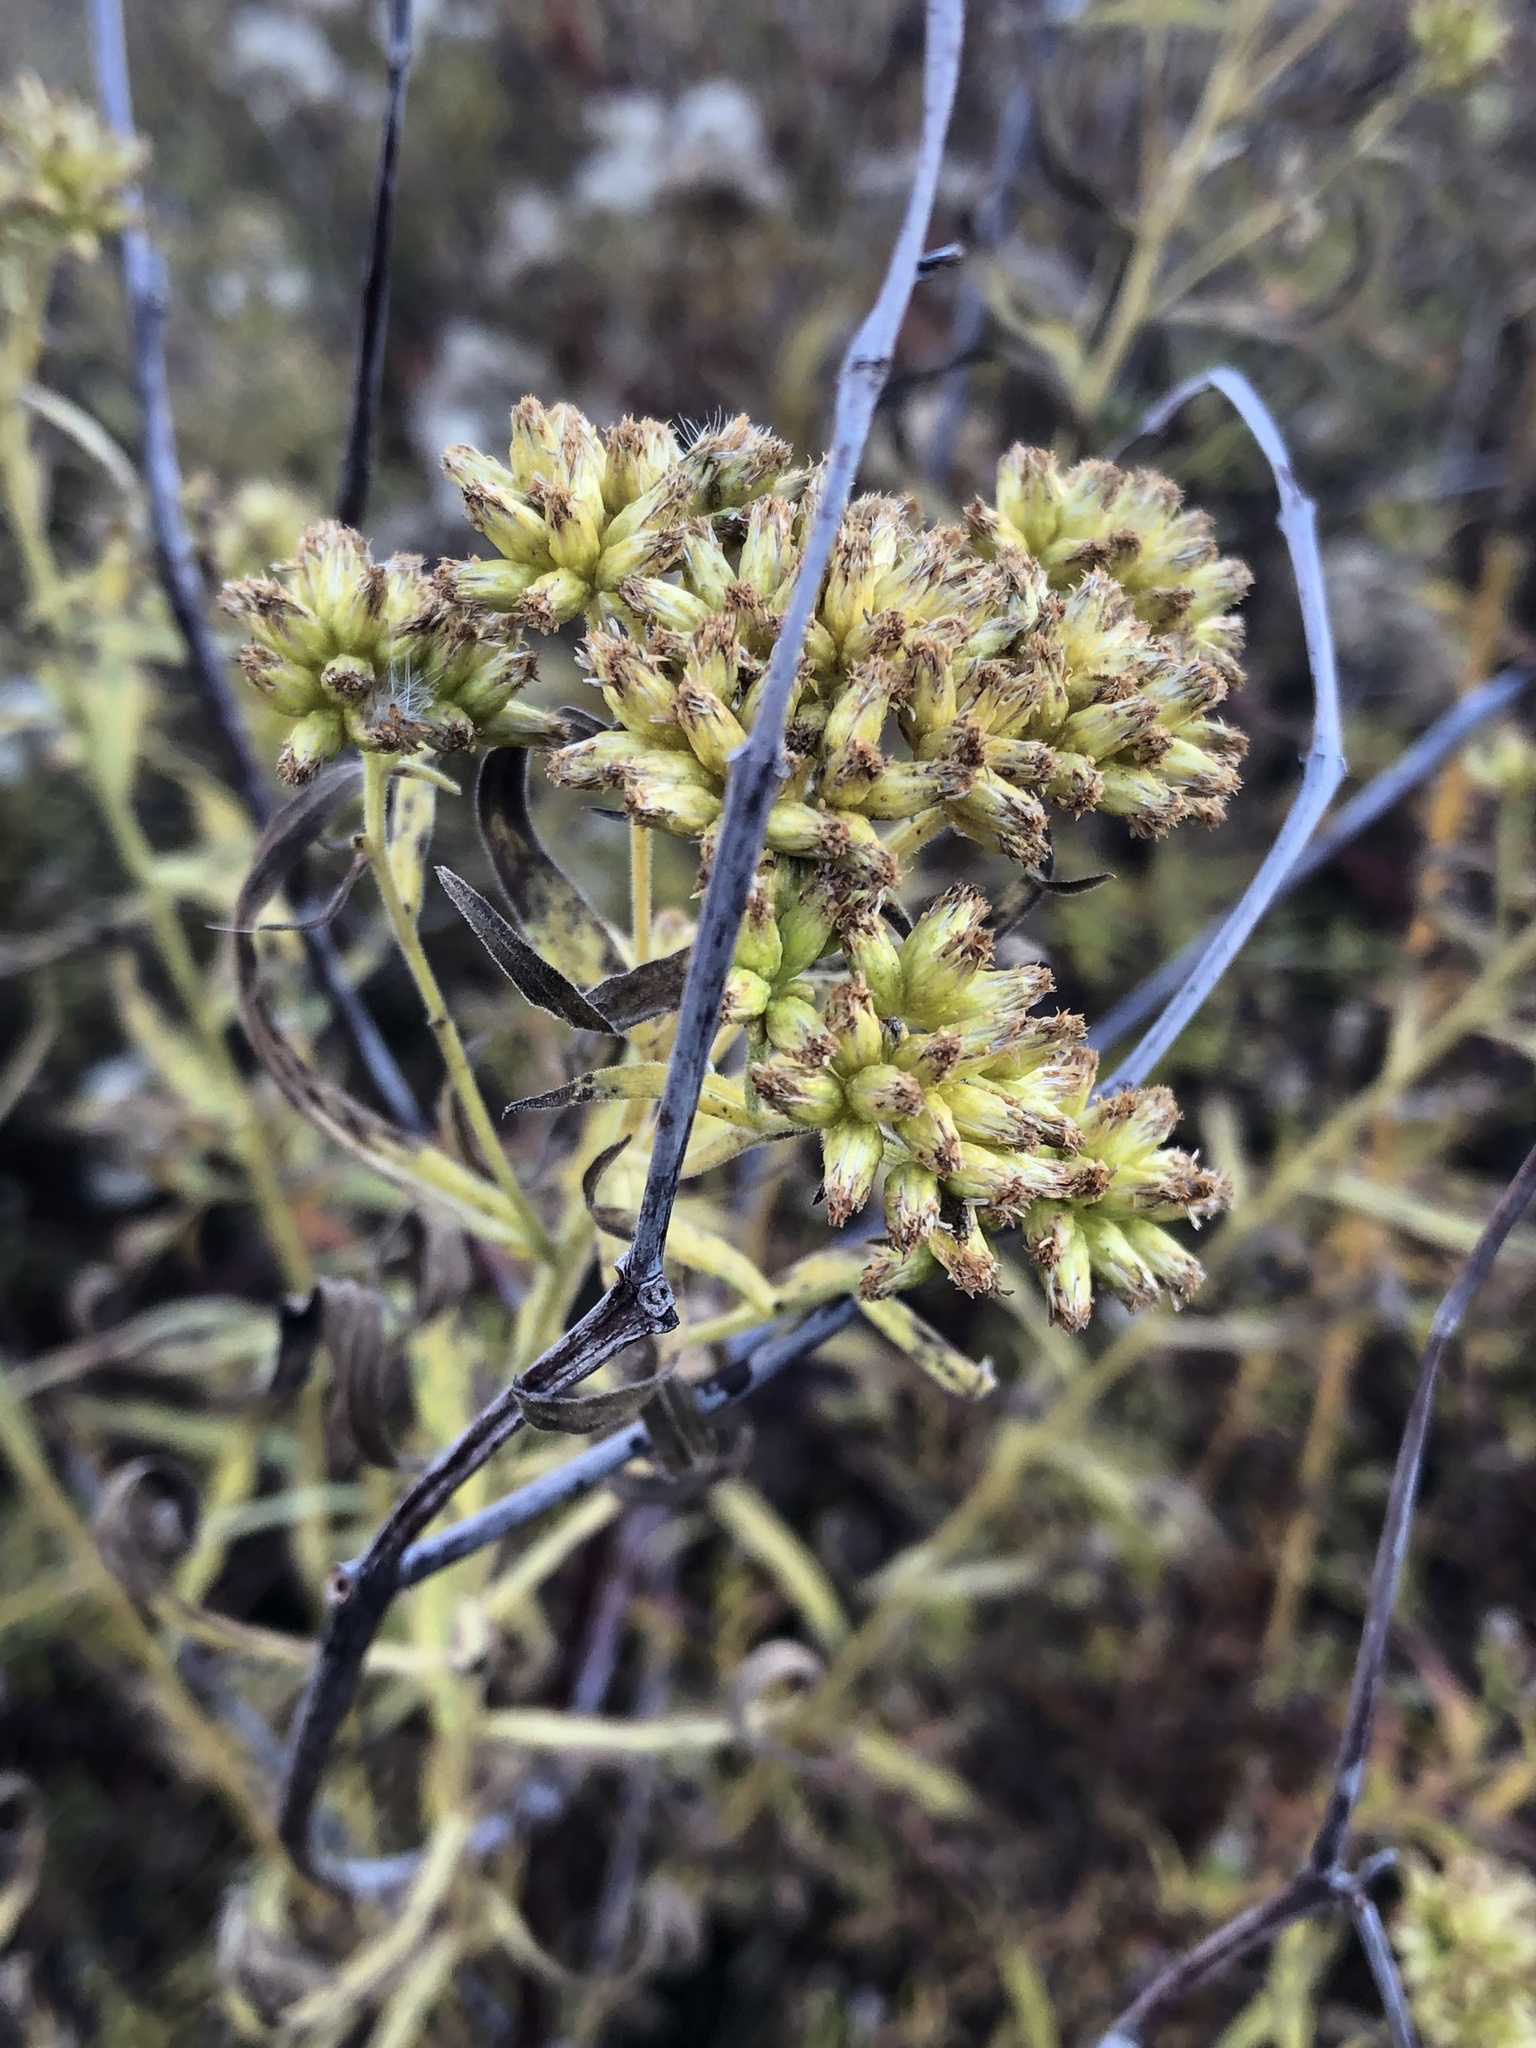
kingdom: Plantae
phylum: Tracheophyta
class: Magnoliopsida
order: Asterales
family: Asteraceae
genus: Euthamia
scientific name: Euthamia graminifolia
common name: Common goldentop
